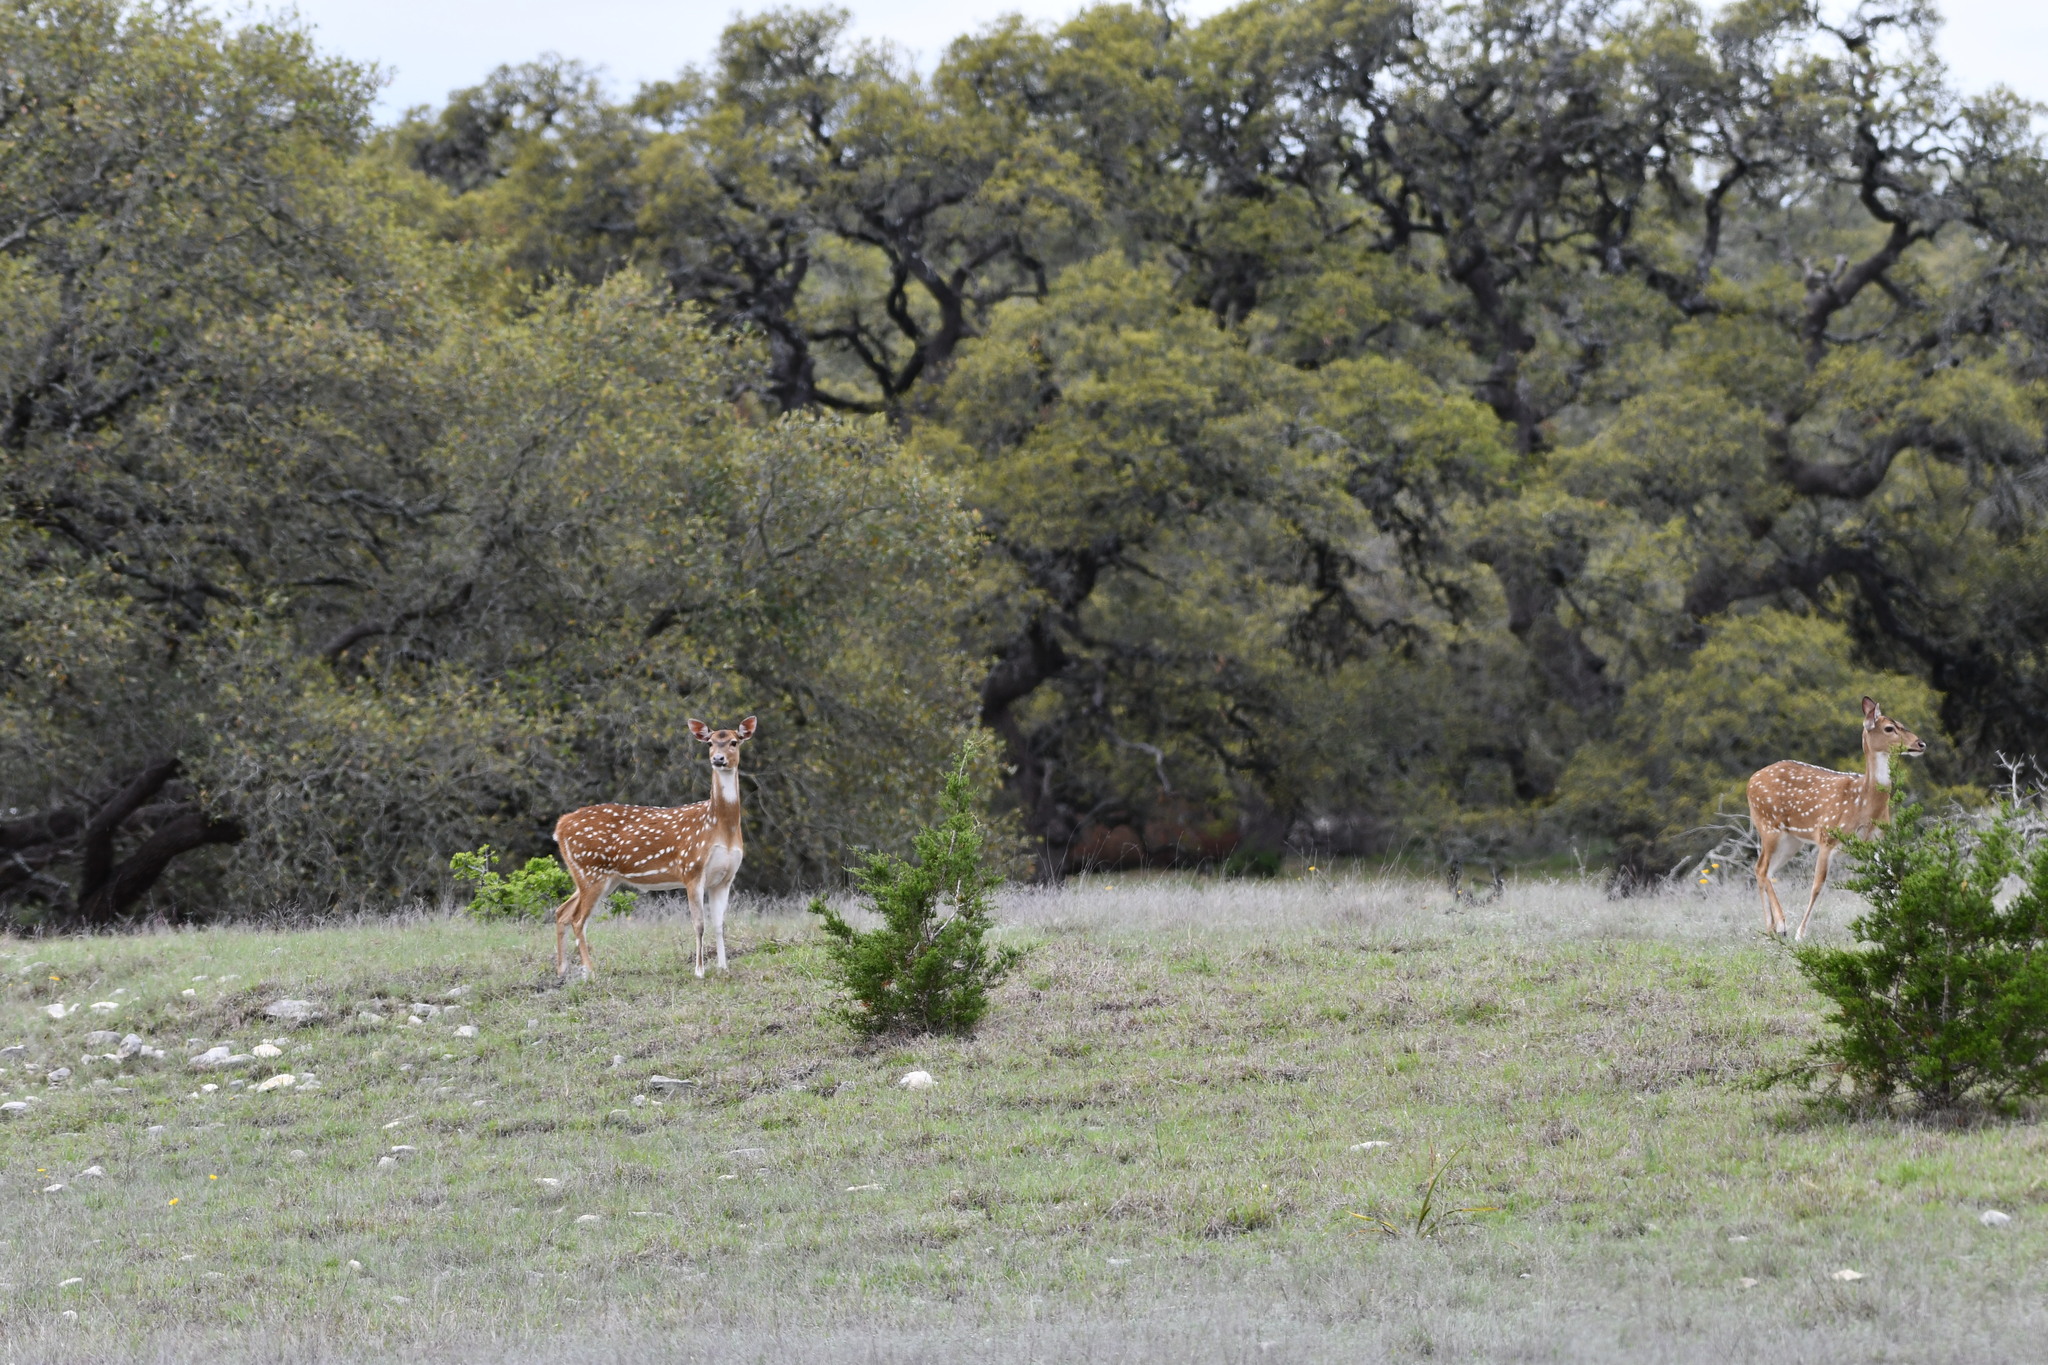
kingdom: Animalia
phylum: Chordata
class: Mammalia
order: Artiodactyla
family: Cervidae
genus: Axis
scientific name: Axis axis
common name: Chital
